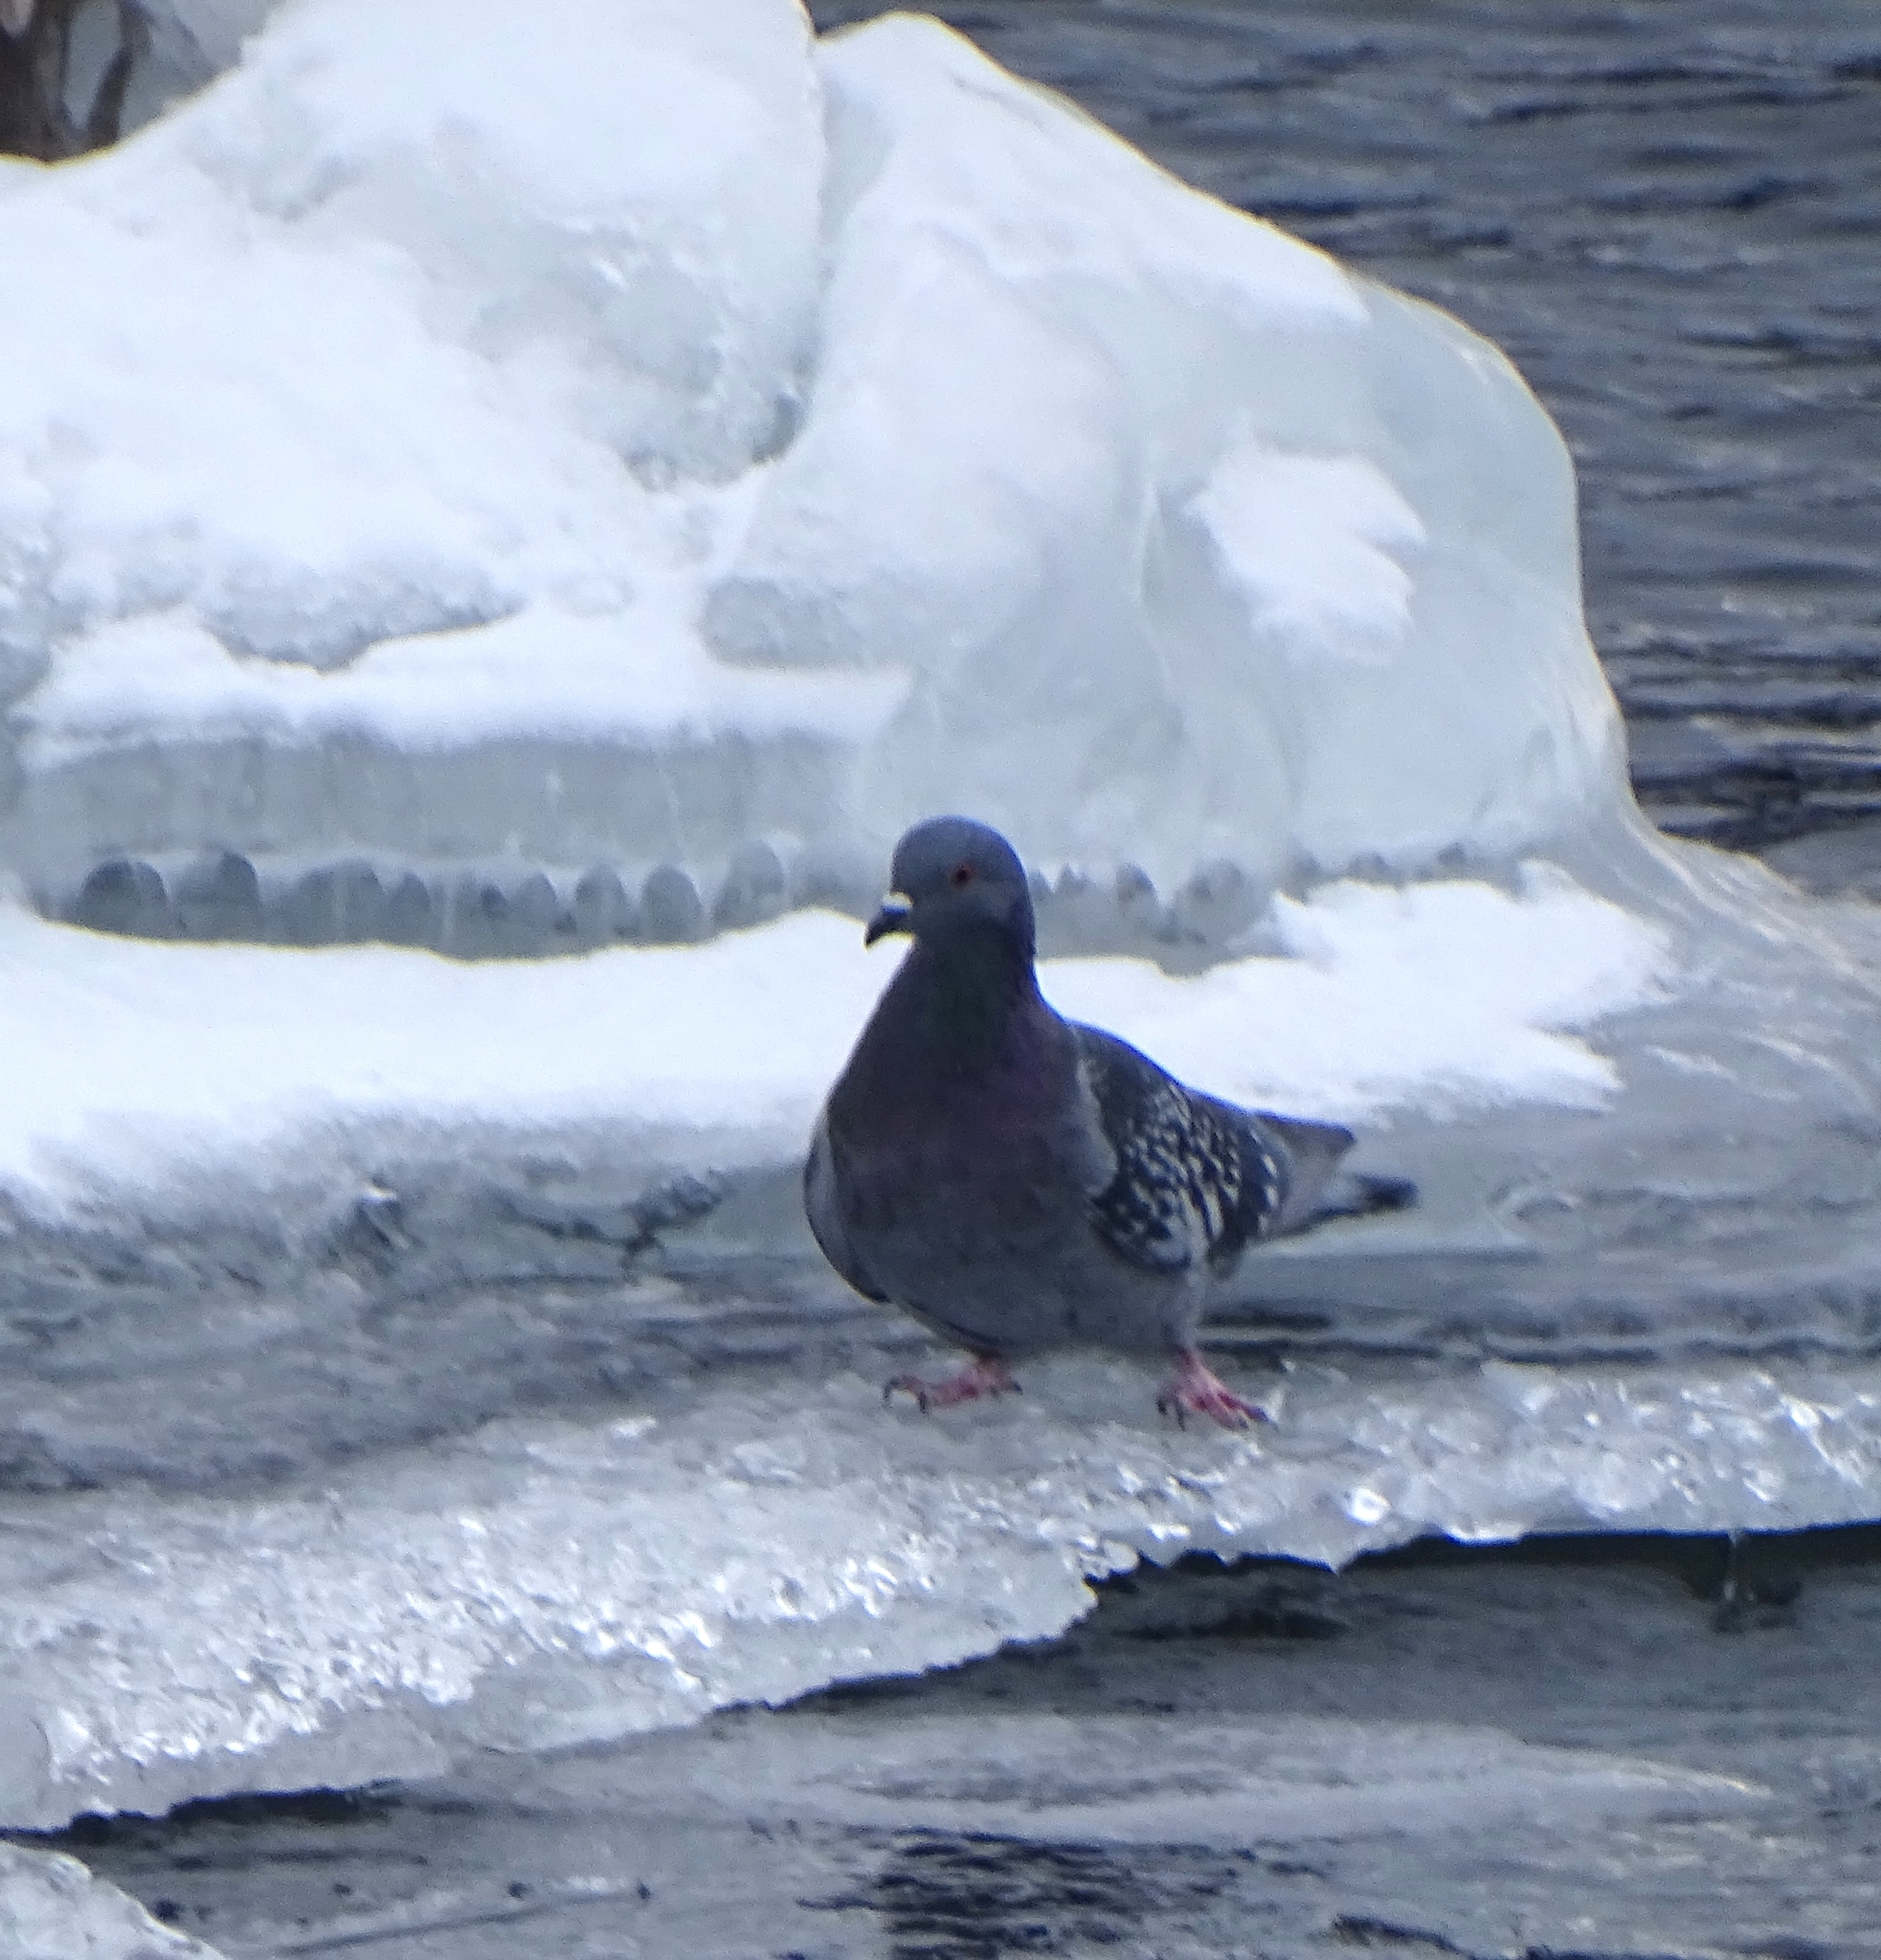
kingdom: Animalia
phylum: Chordata
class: Aves
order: Columbiformes
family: Columbidae
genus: Columba
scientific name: Columba livia
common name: Rock pigeon
